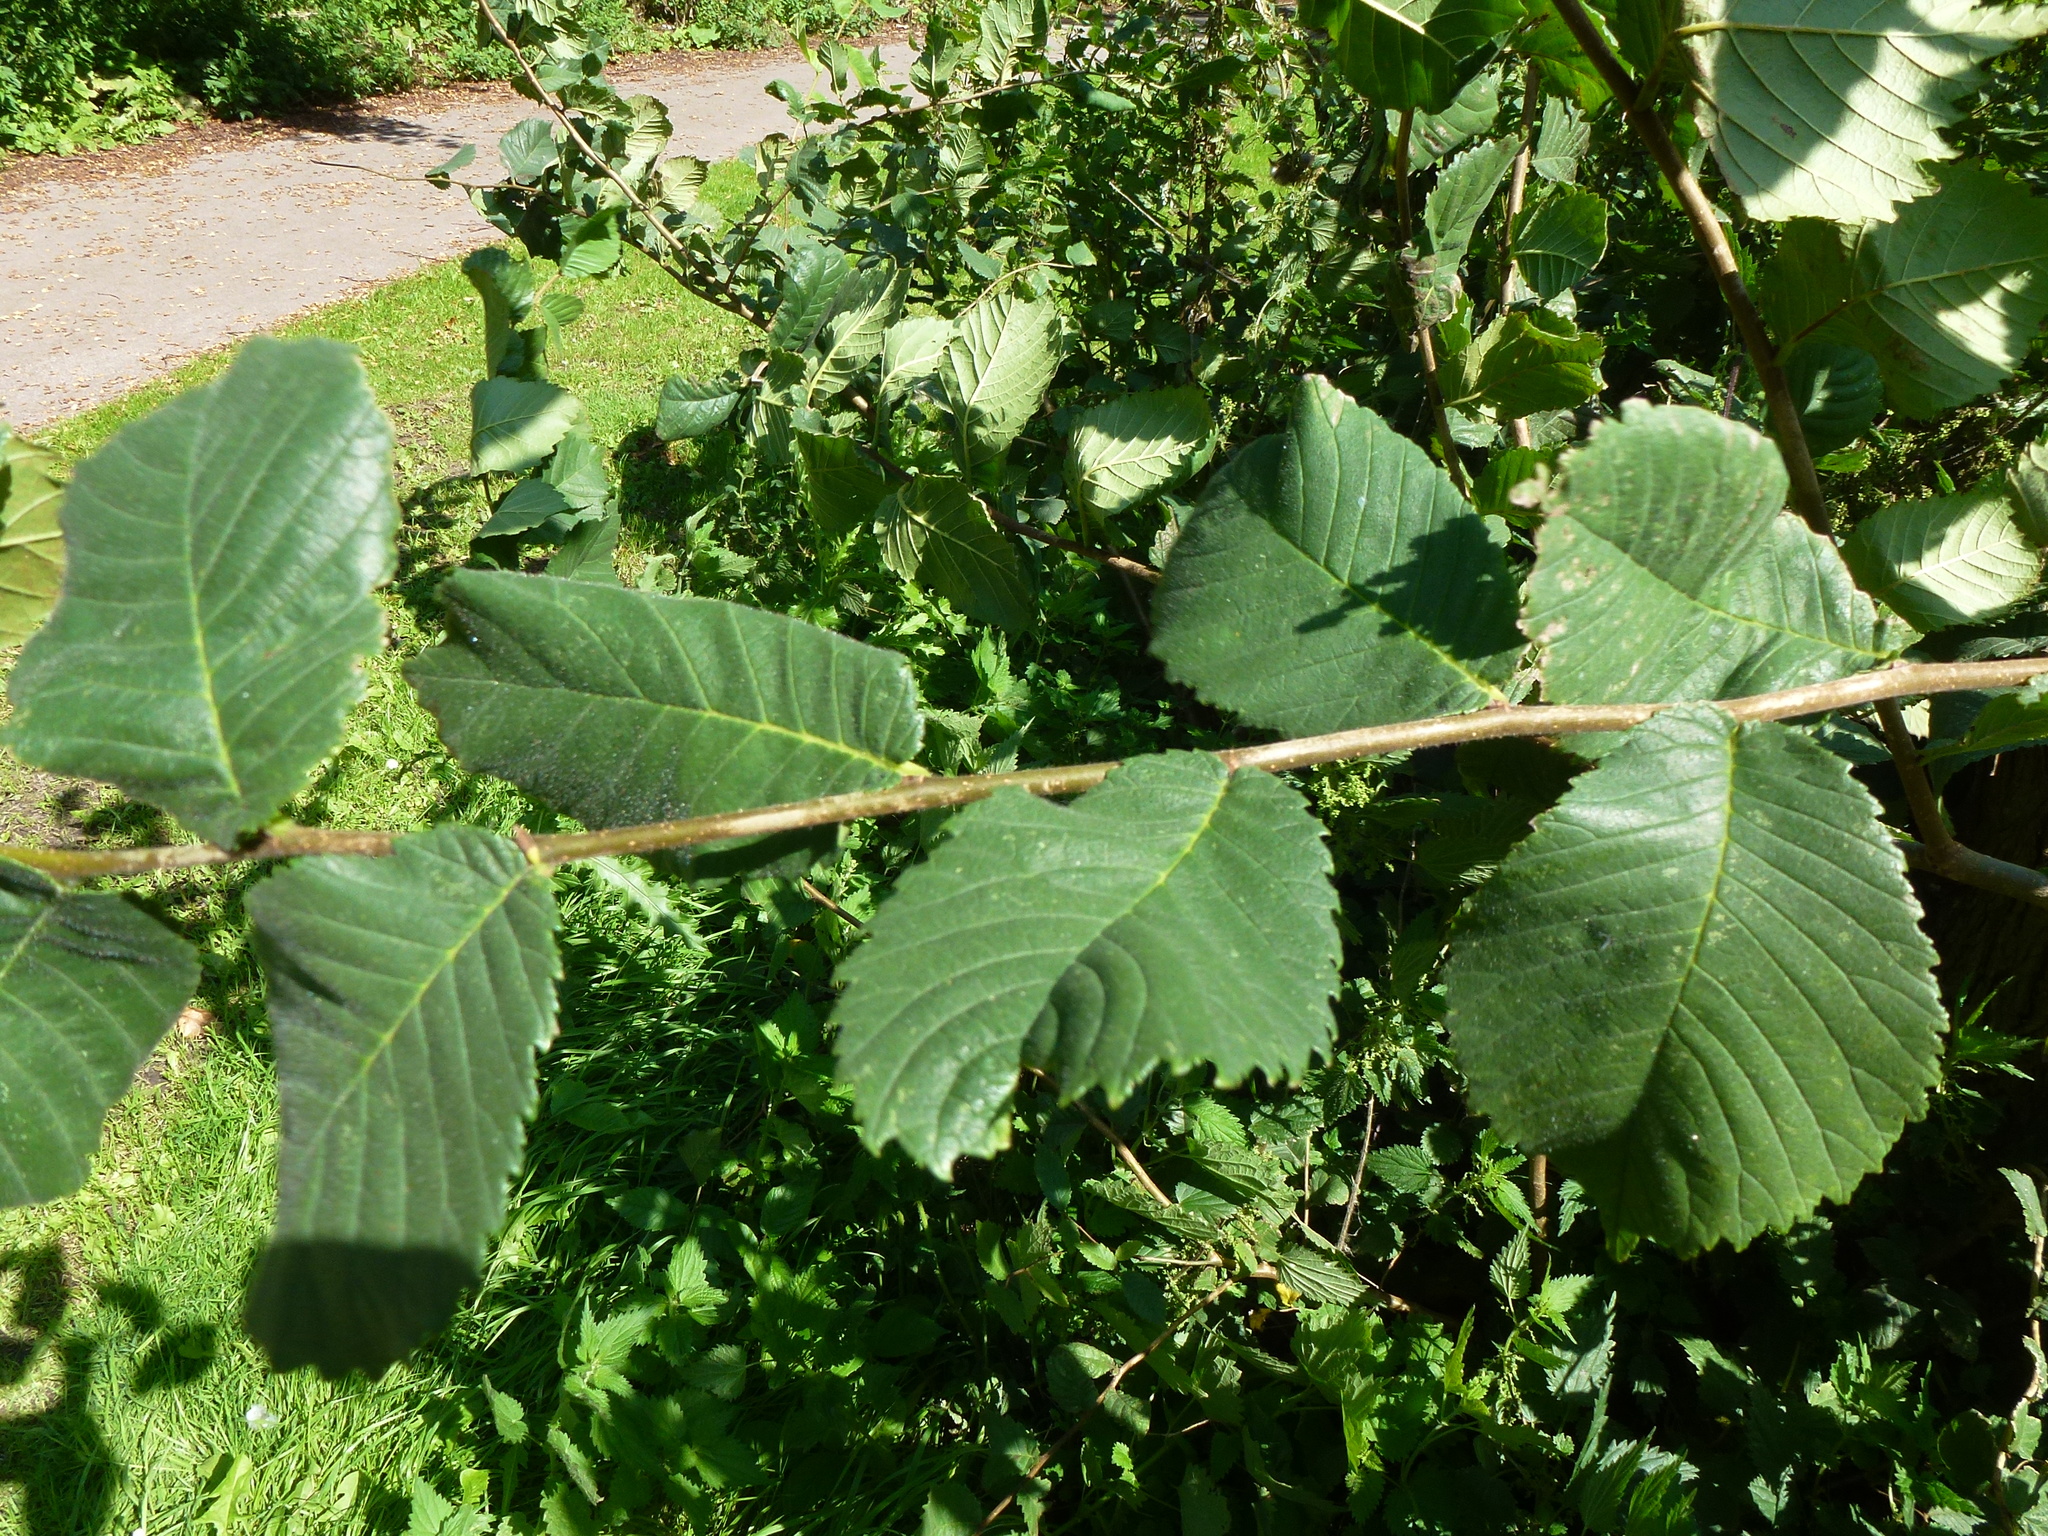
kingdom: Plantae
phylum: Tracheophyta
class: Magnoliopsida
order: Rosales
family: Ulmaceae
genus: Ulmus
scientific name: Ulmus glabra
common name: Wych elm
